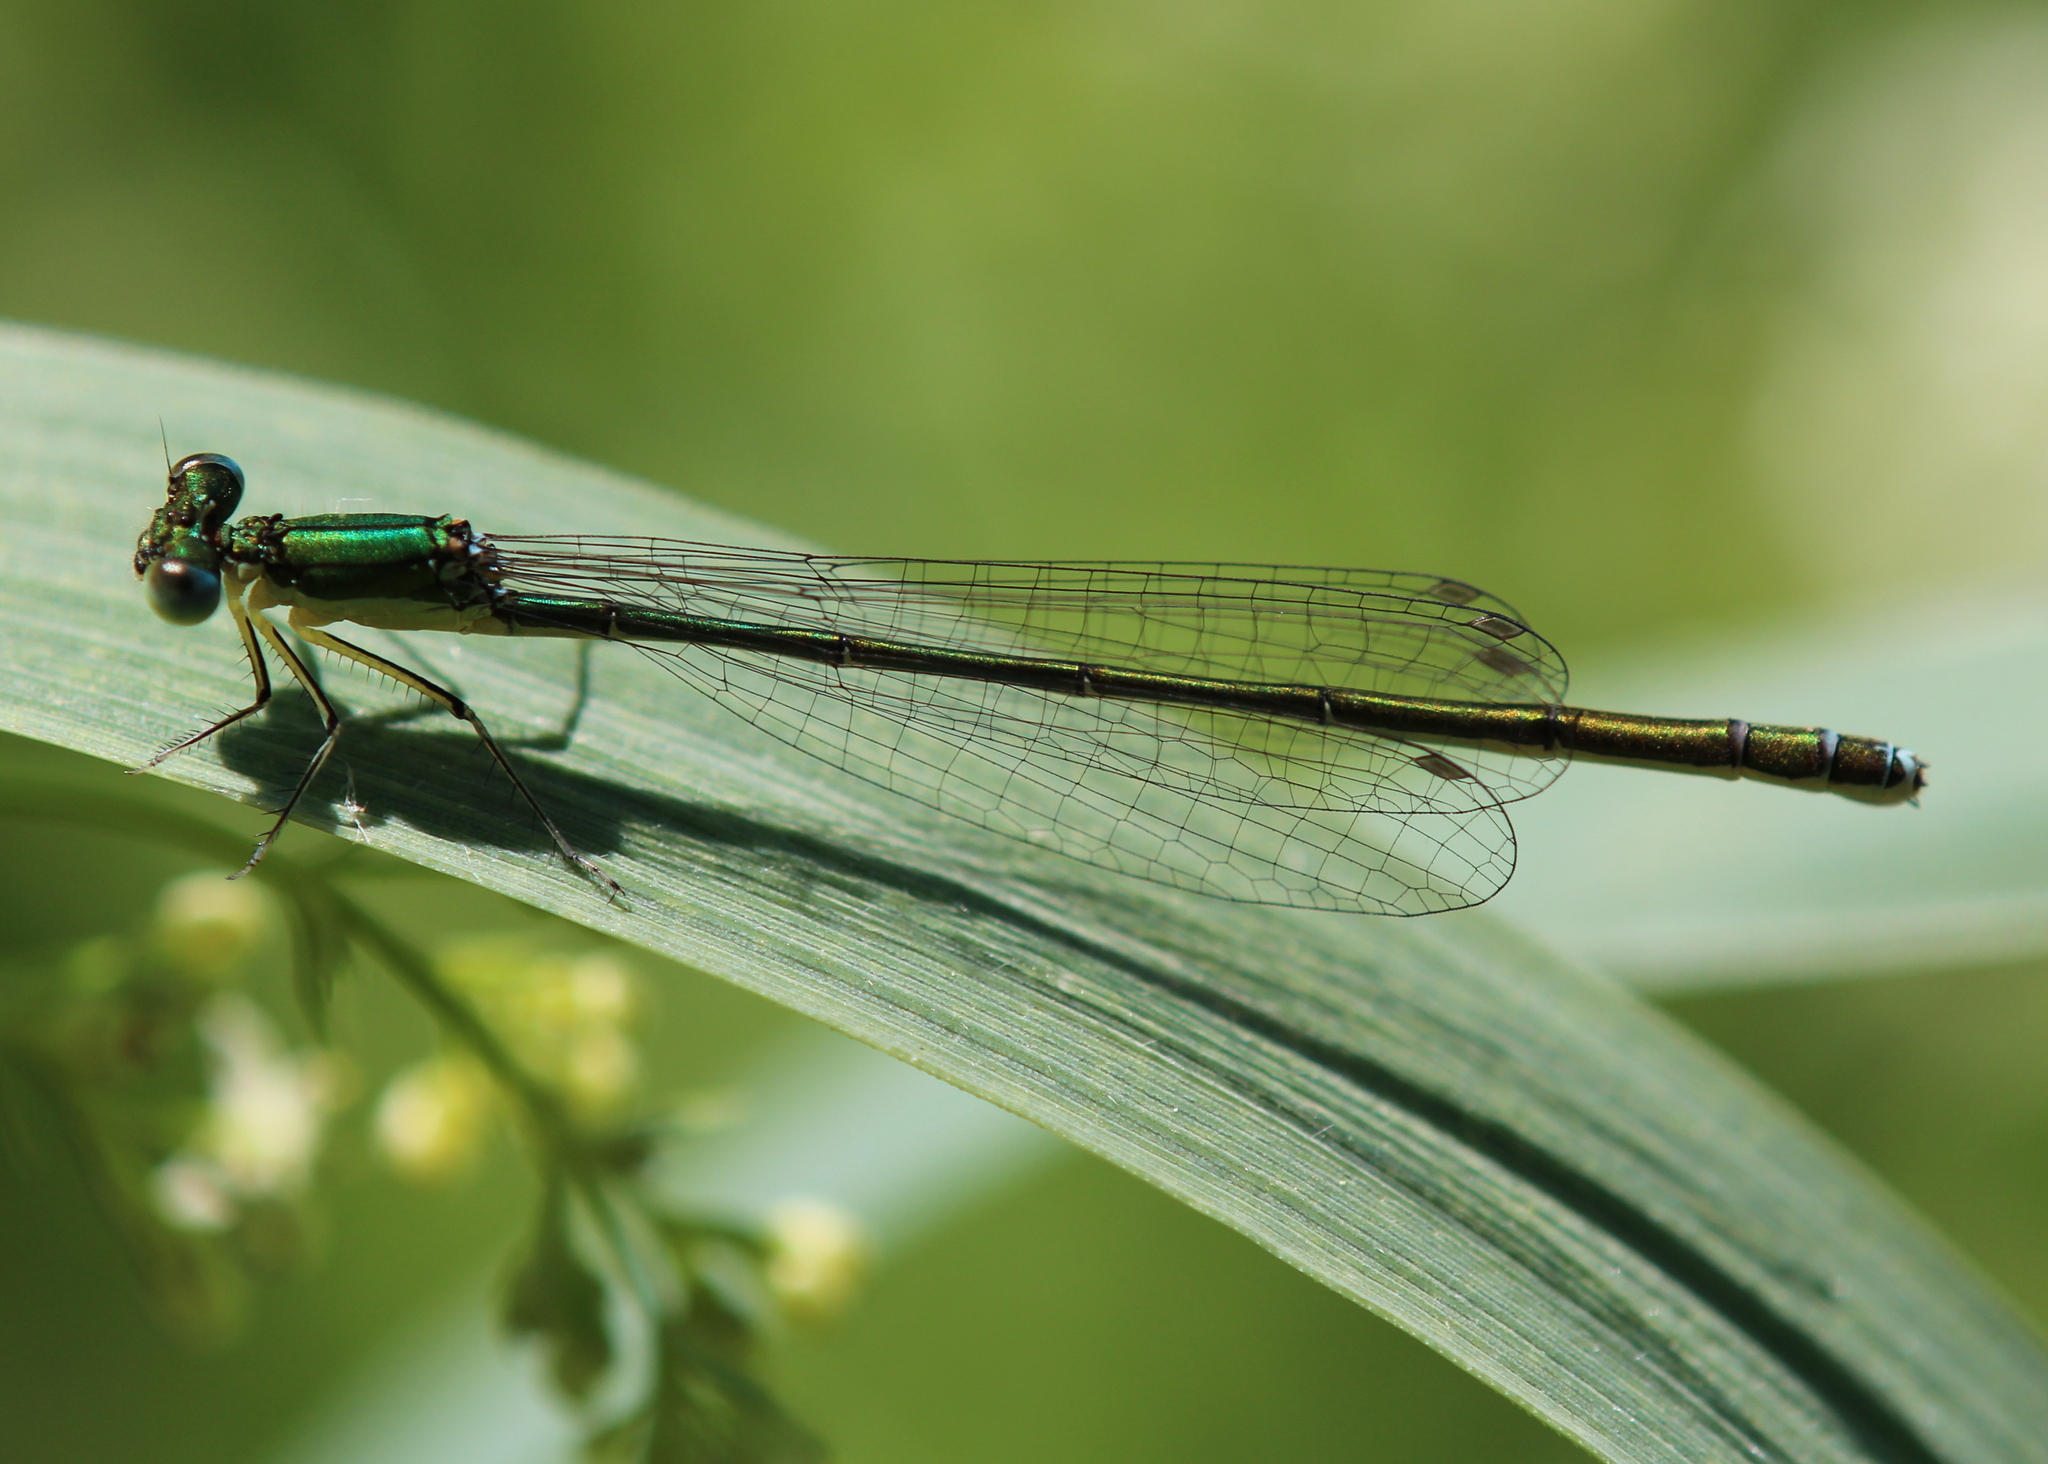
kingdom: Animalia
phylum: Arthropoda
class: Insecta
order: Odonata
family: Coenagrionidae
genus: Nehalennia
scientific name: Nehalennia irene
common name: Sedge sprite
